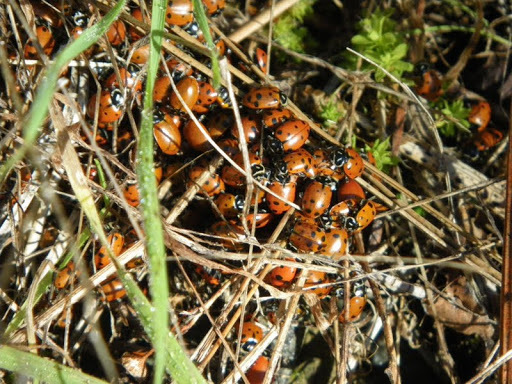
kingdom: Animalia
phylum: Arthropoda
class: Insecta
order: Coleoptera
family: Coccinellidae
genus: Hippodamia
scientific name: Hippodamia convergens
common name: Convergent lady beetle
